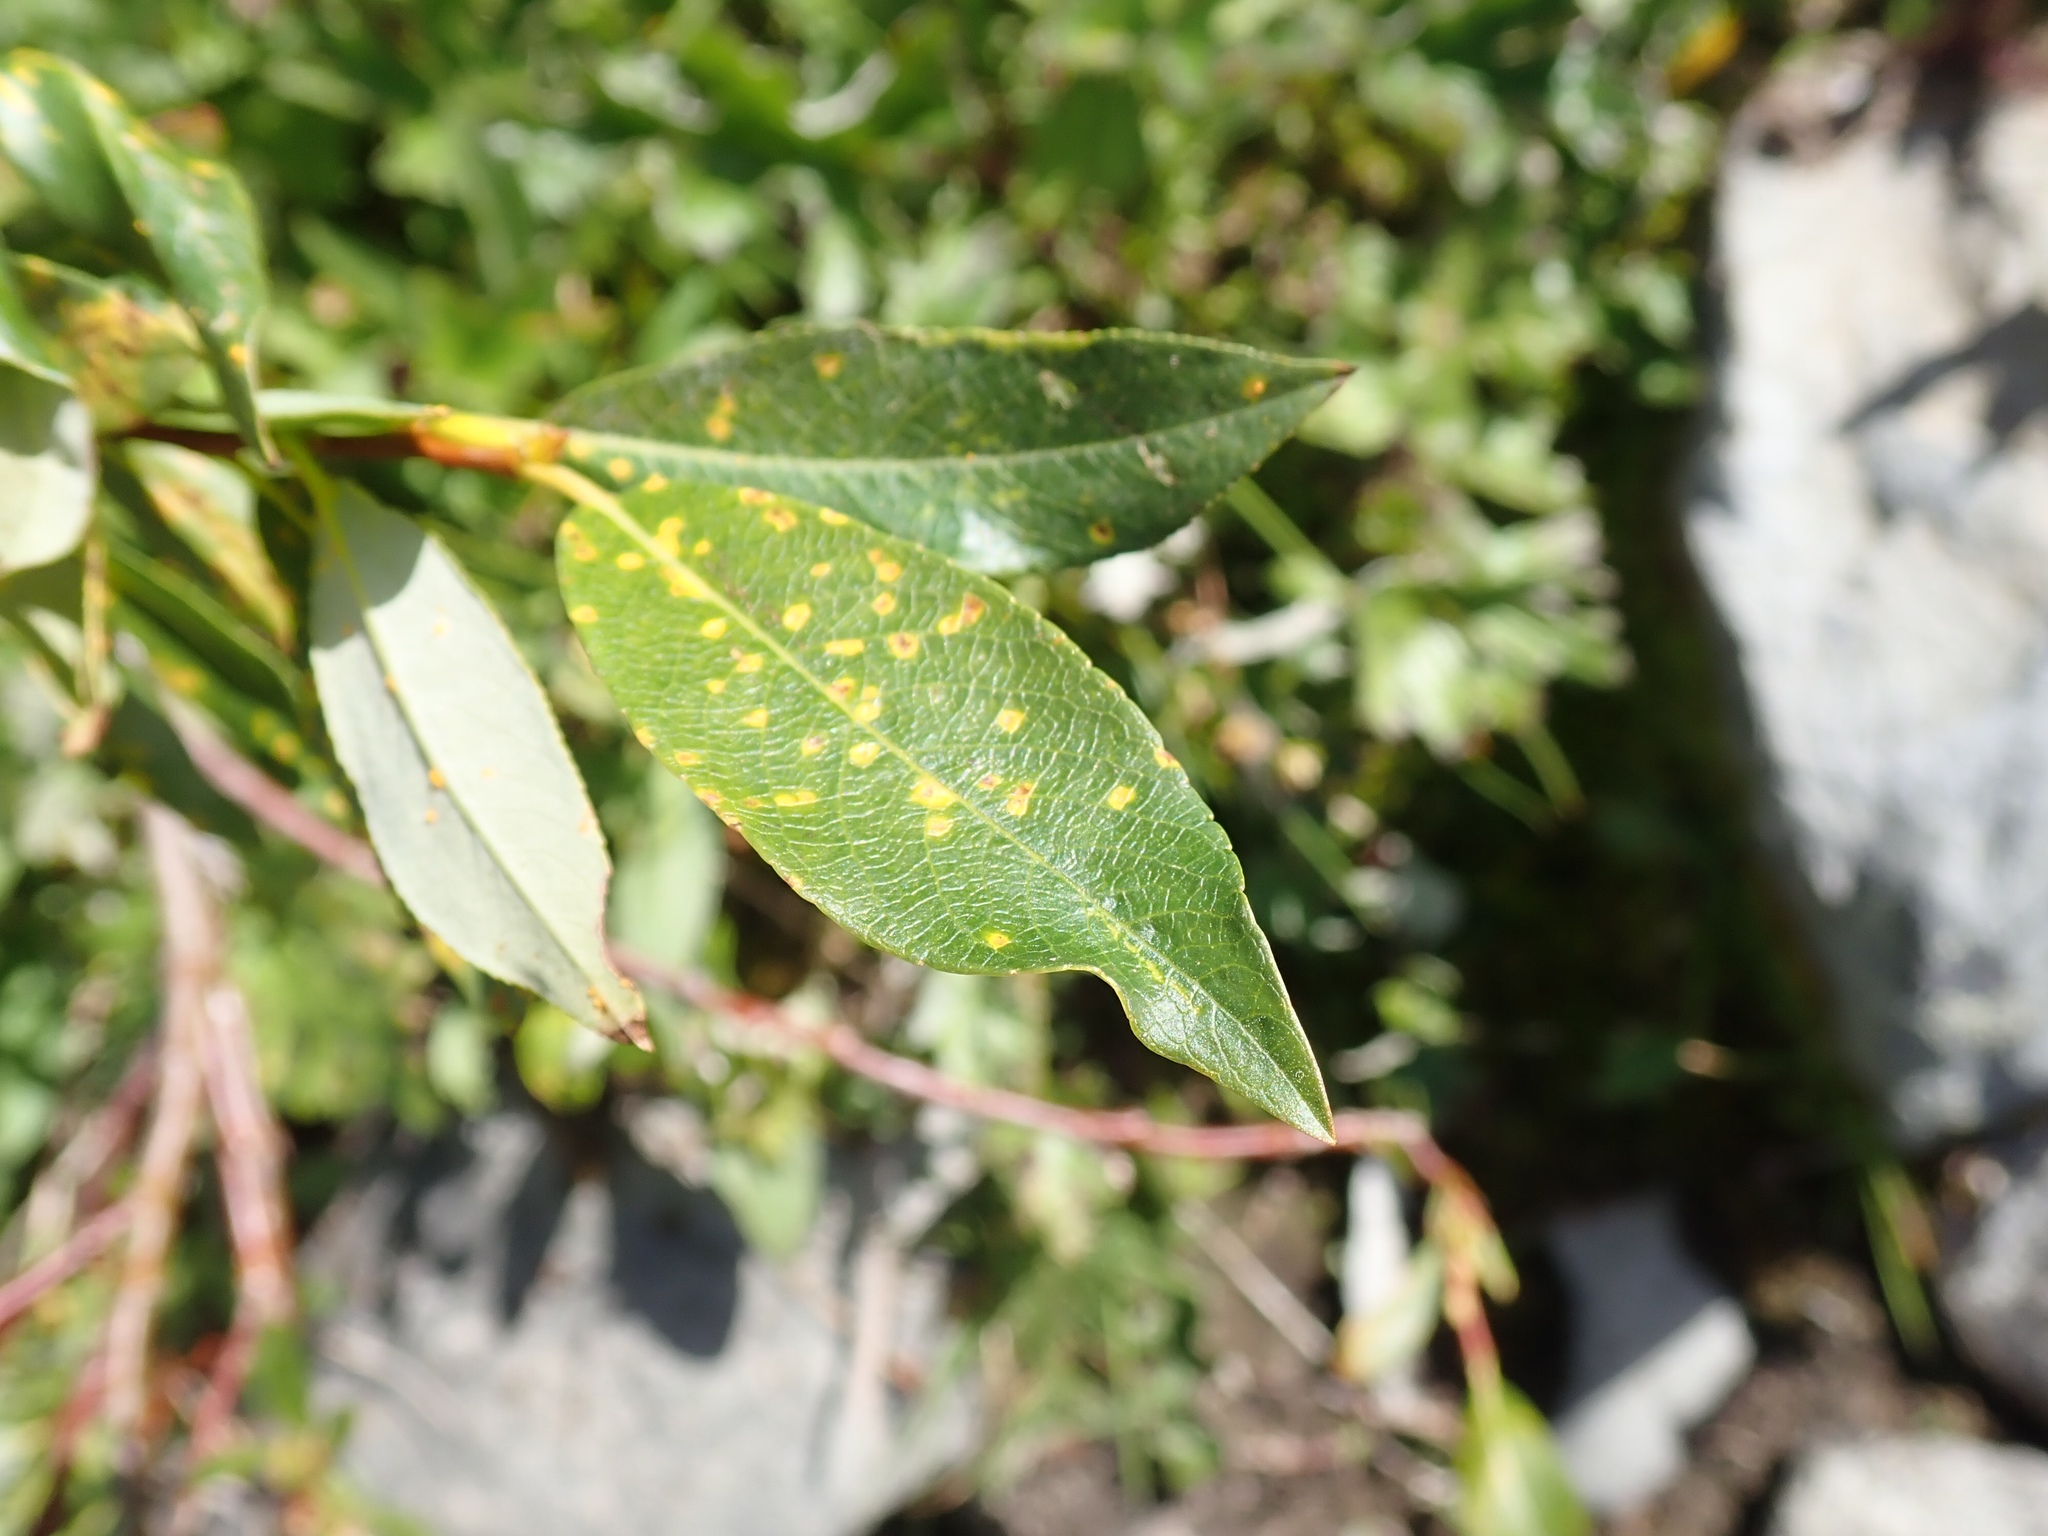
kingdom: Plantae
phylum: Tracheophyta
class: Magnoliopsida
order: Malpighiales
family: Salicaceae
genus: Salix
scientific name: Salix barclayi
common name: Mountain willow
